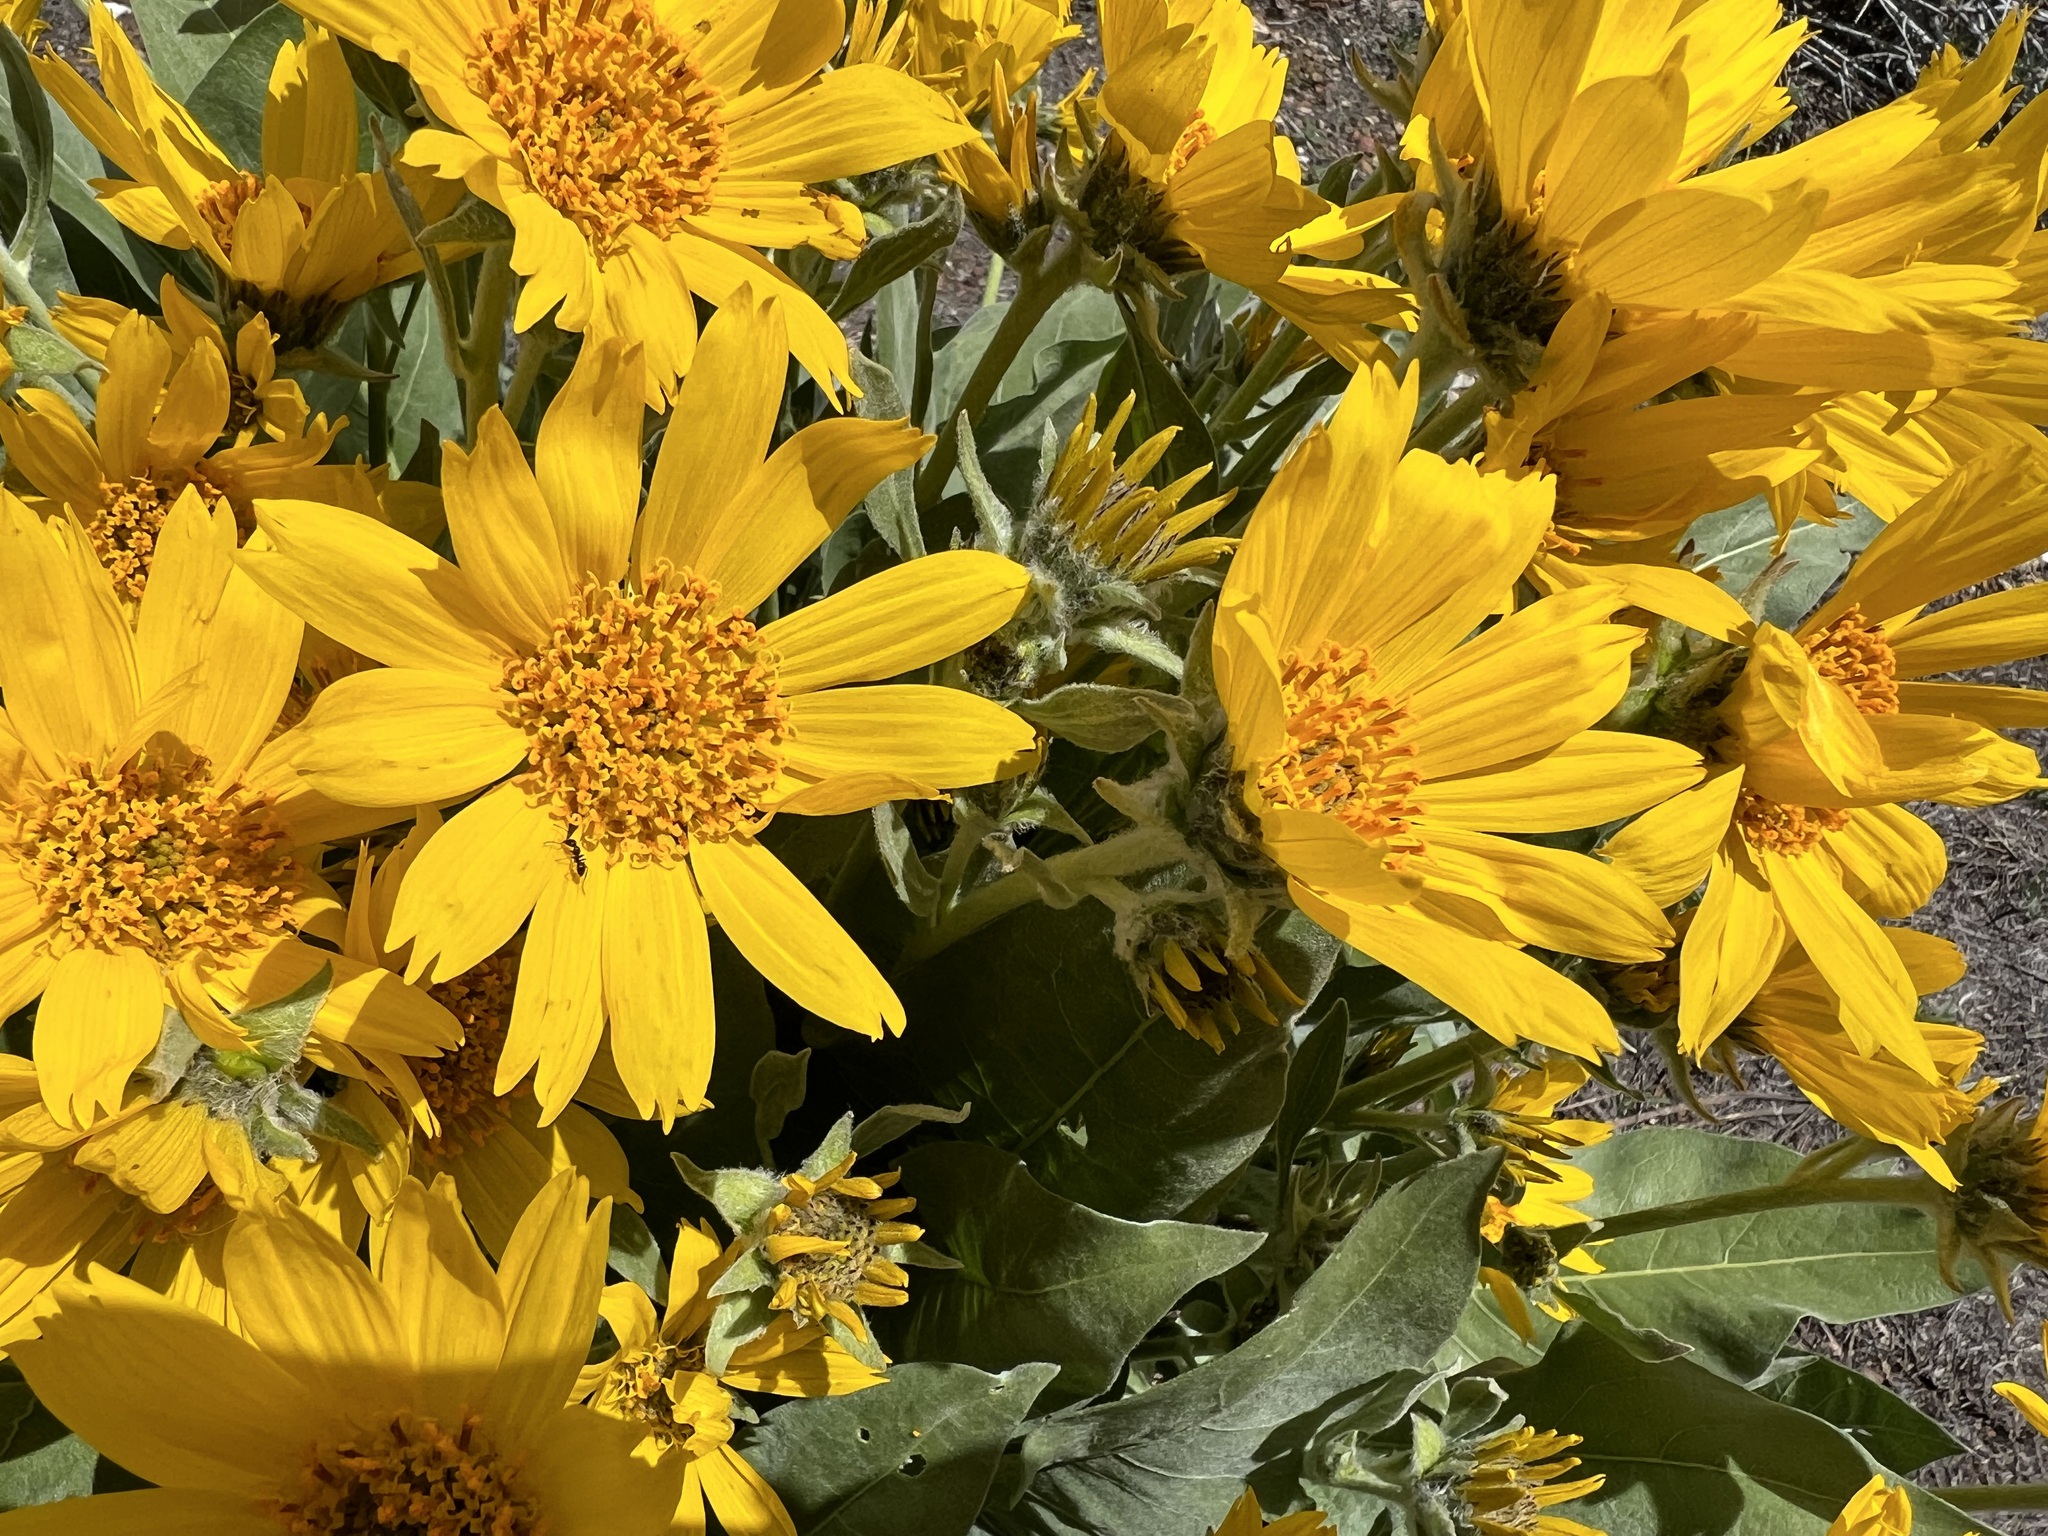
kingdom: Plantae
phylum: Tracheophyta
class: Magnoliopsida
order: Asterales
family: Asteraceae
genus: Wyethia
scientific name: Wyethia sagittata
